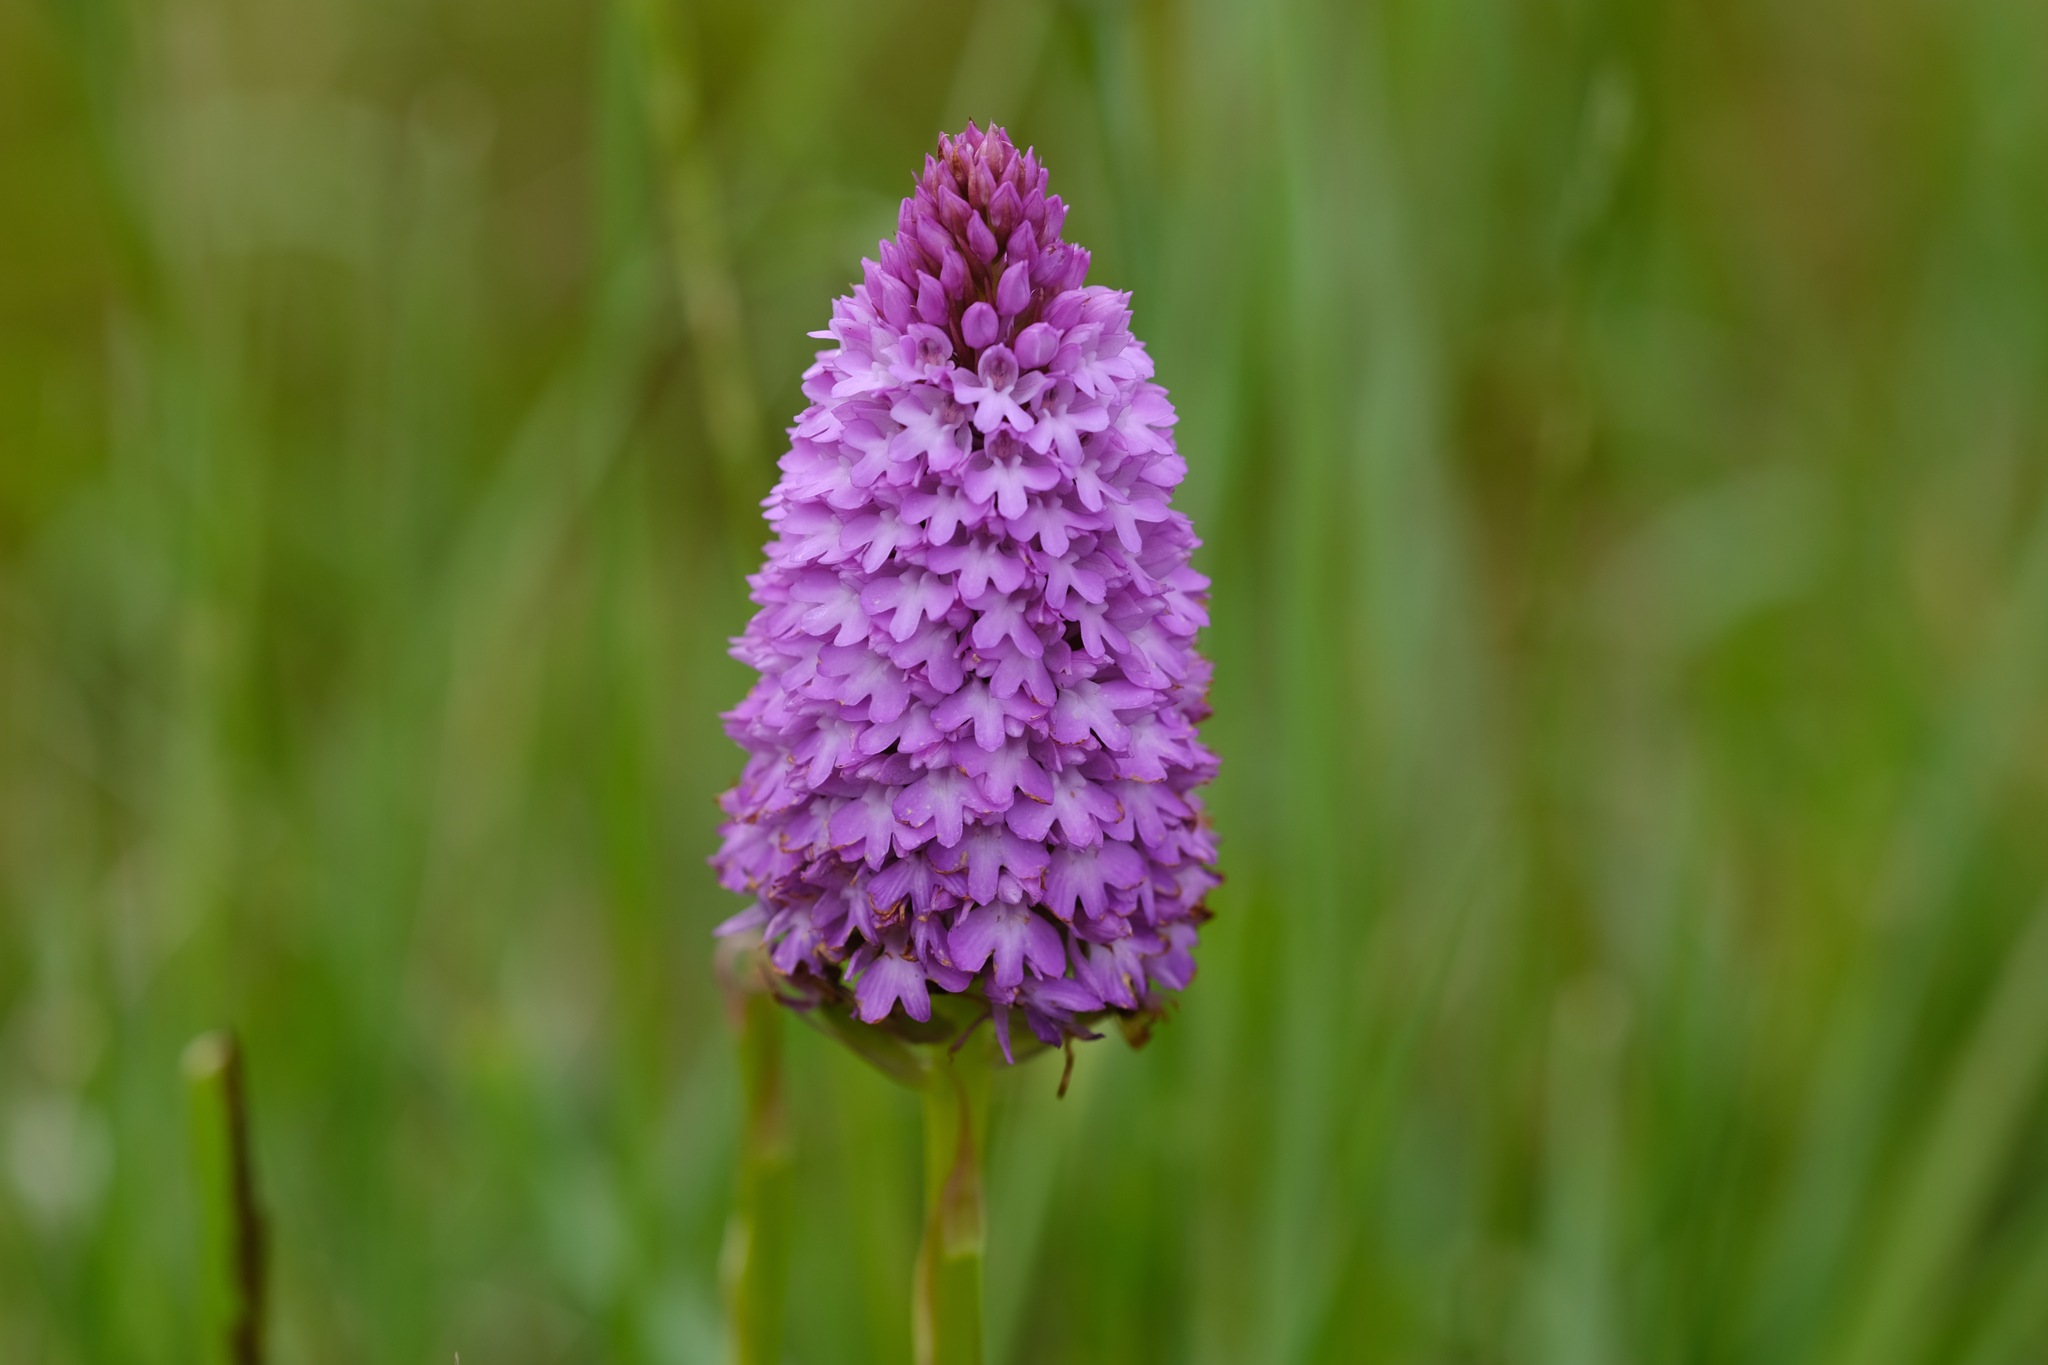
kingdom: Plantae
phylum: Tracheophyta
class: Liliopsida
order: Asparagales
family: Orchidaceae
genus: Anacamptis
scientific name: Anacamptis pyramidalis
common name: Pyramidal orchid
